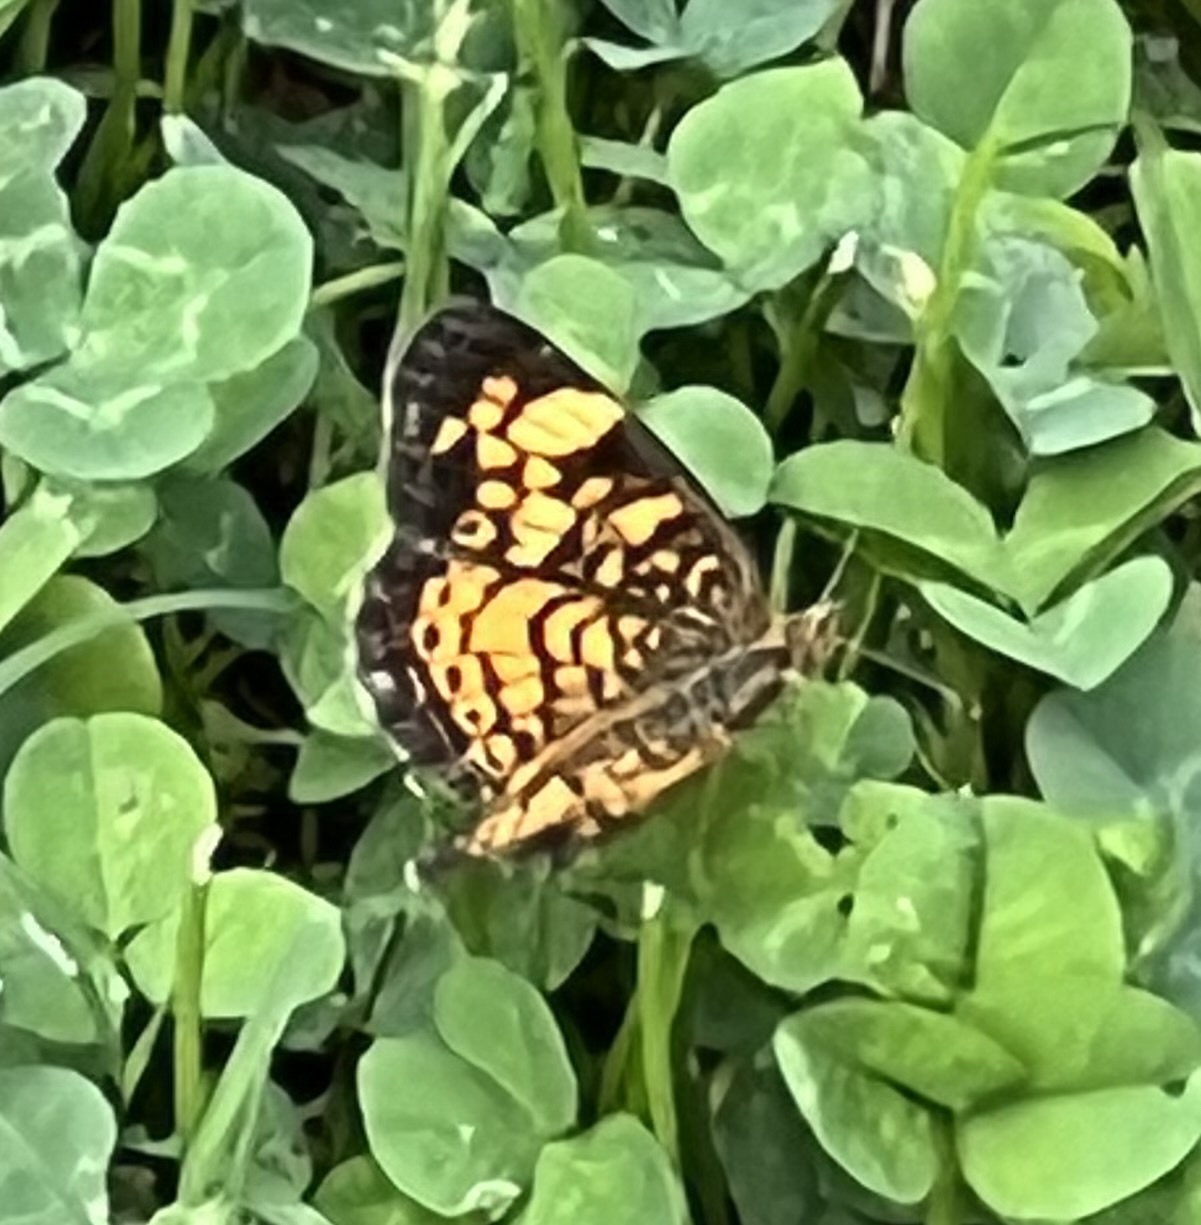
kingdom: Animalia
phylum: Arthropoda
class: Insecta
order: Lepidoptera
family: Nymphalidae
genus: Phyciodes
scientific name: Phyciodes tharos
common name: Pearl crescent
